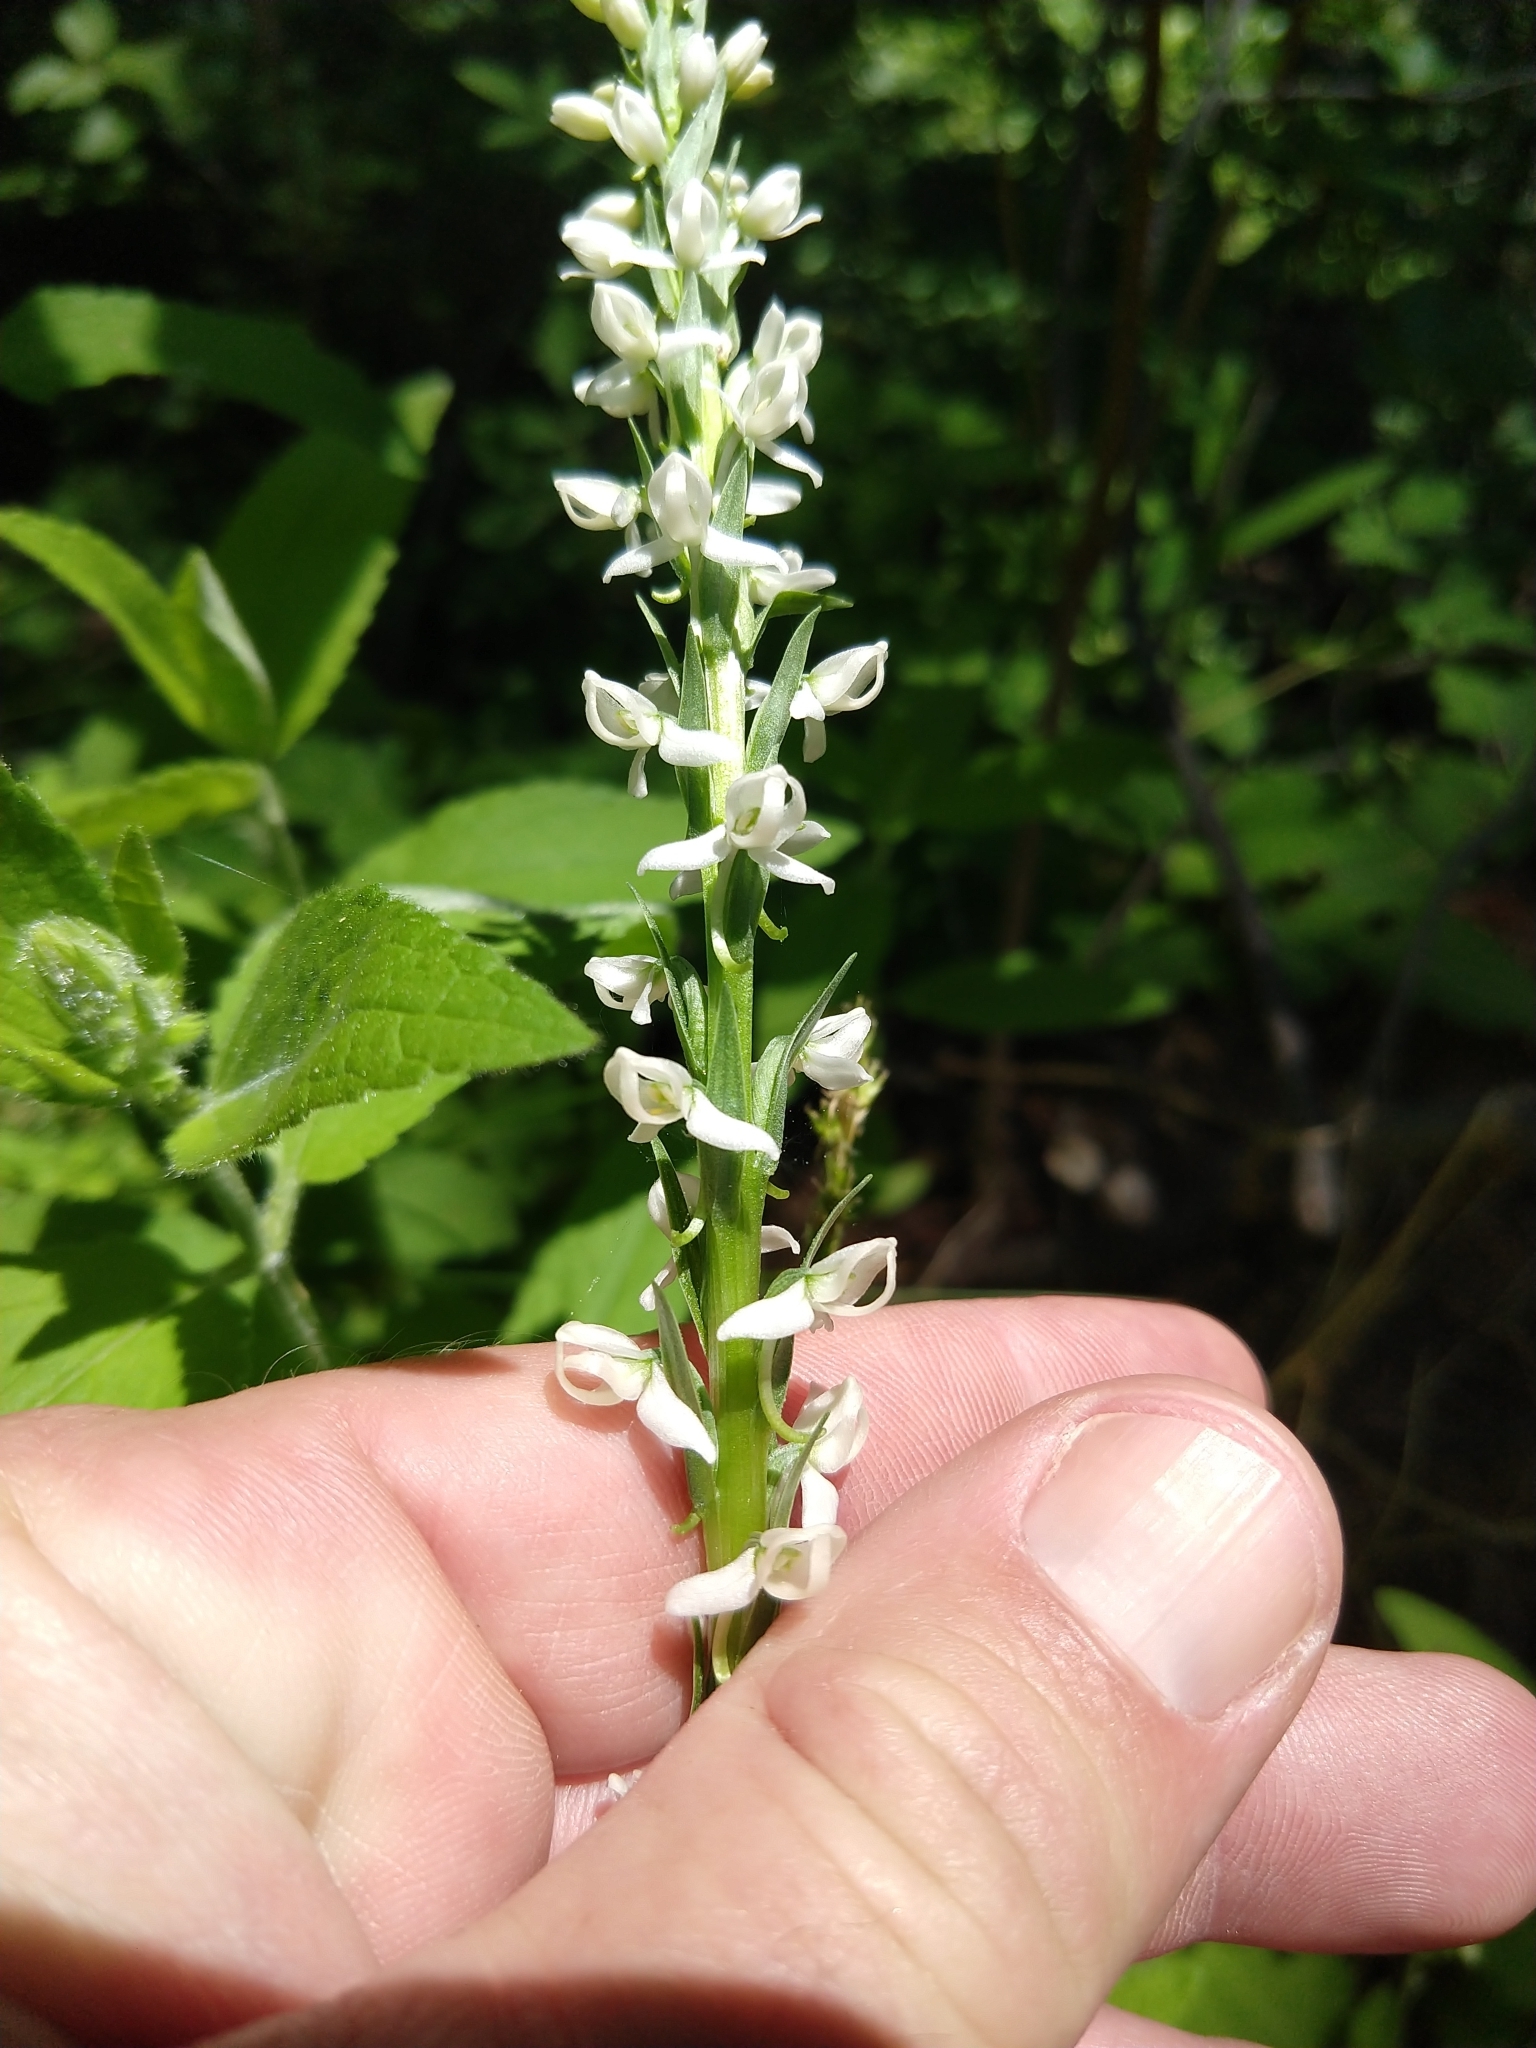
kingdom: Plantae
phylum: Tracheophyta
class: Liliopsida
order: Asparagales
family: Orchidaceae
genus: Platanthera
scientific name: Platanthera dilatata
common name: Bog candles
